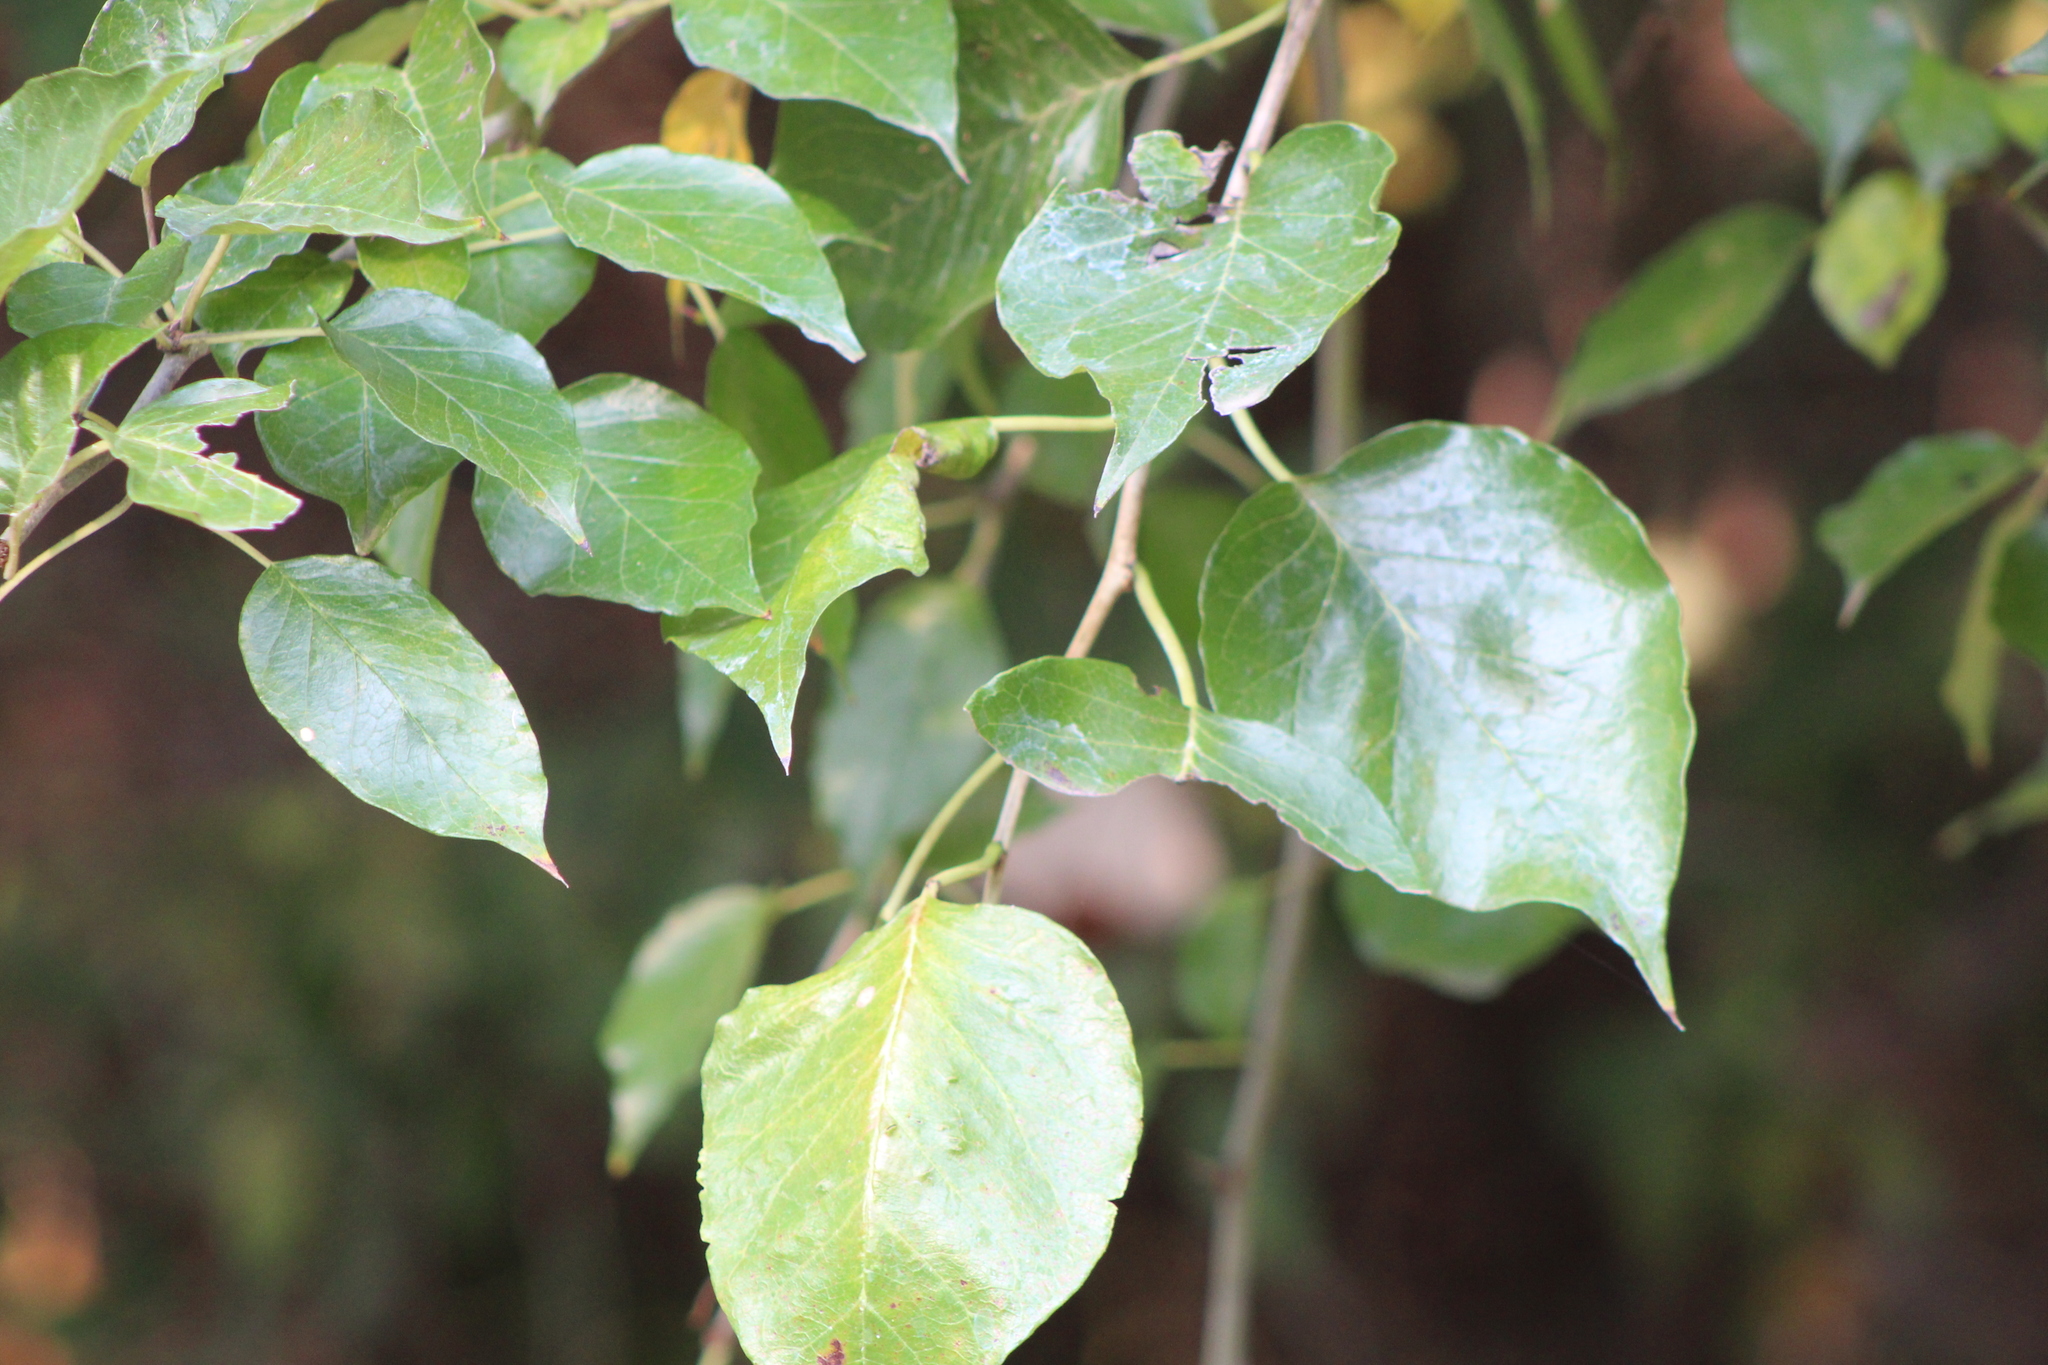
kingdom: Plantae
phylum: Tracheophyta
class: Magnoliopsida
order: Rosales
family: Moraceae
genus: Maclura
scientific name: Maclura pomifera
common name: Osage-orange
